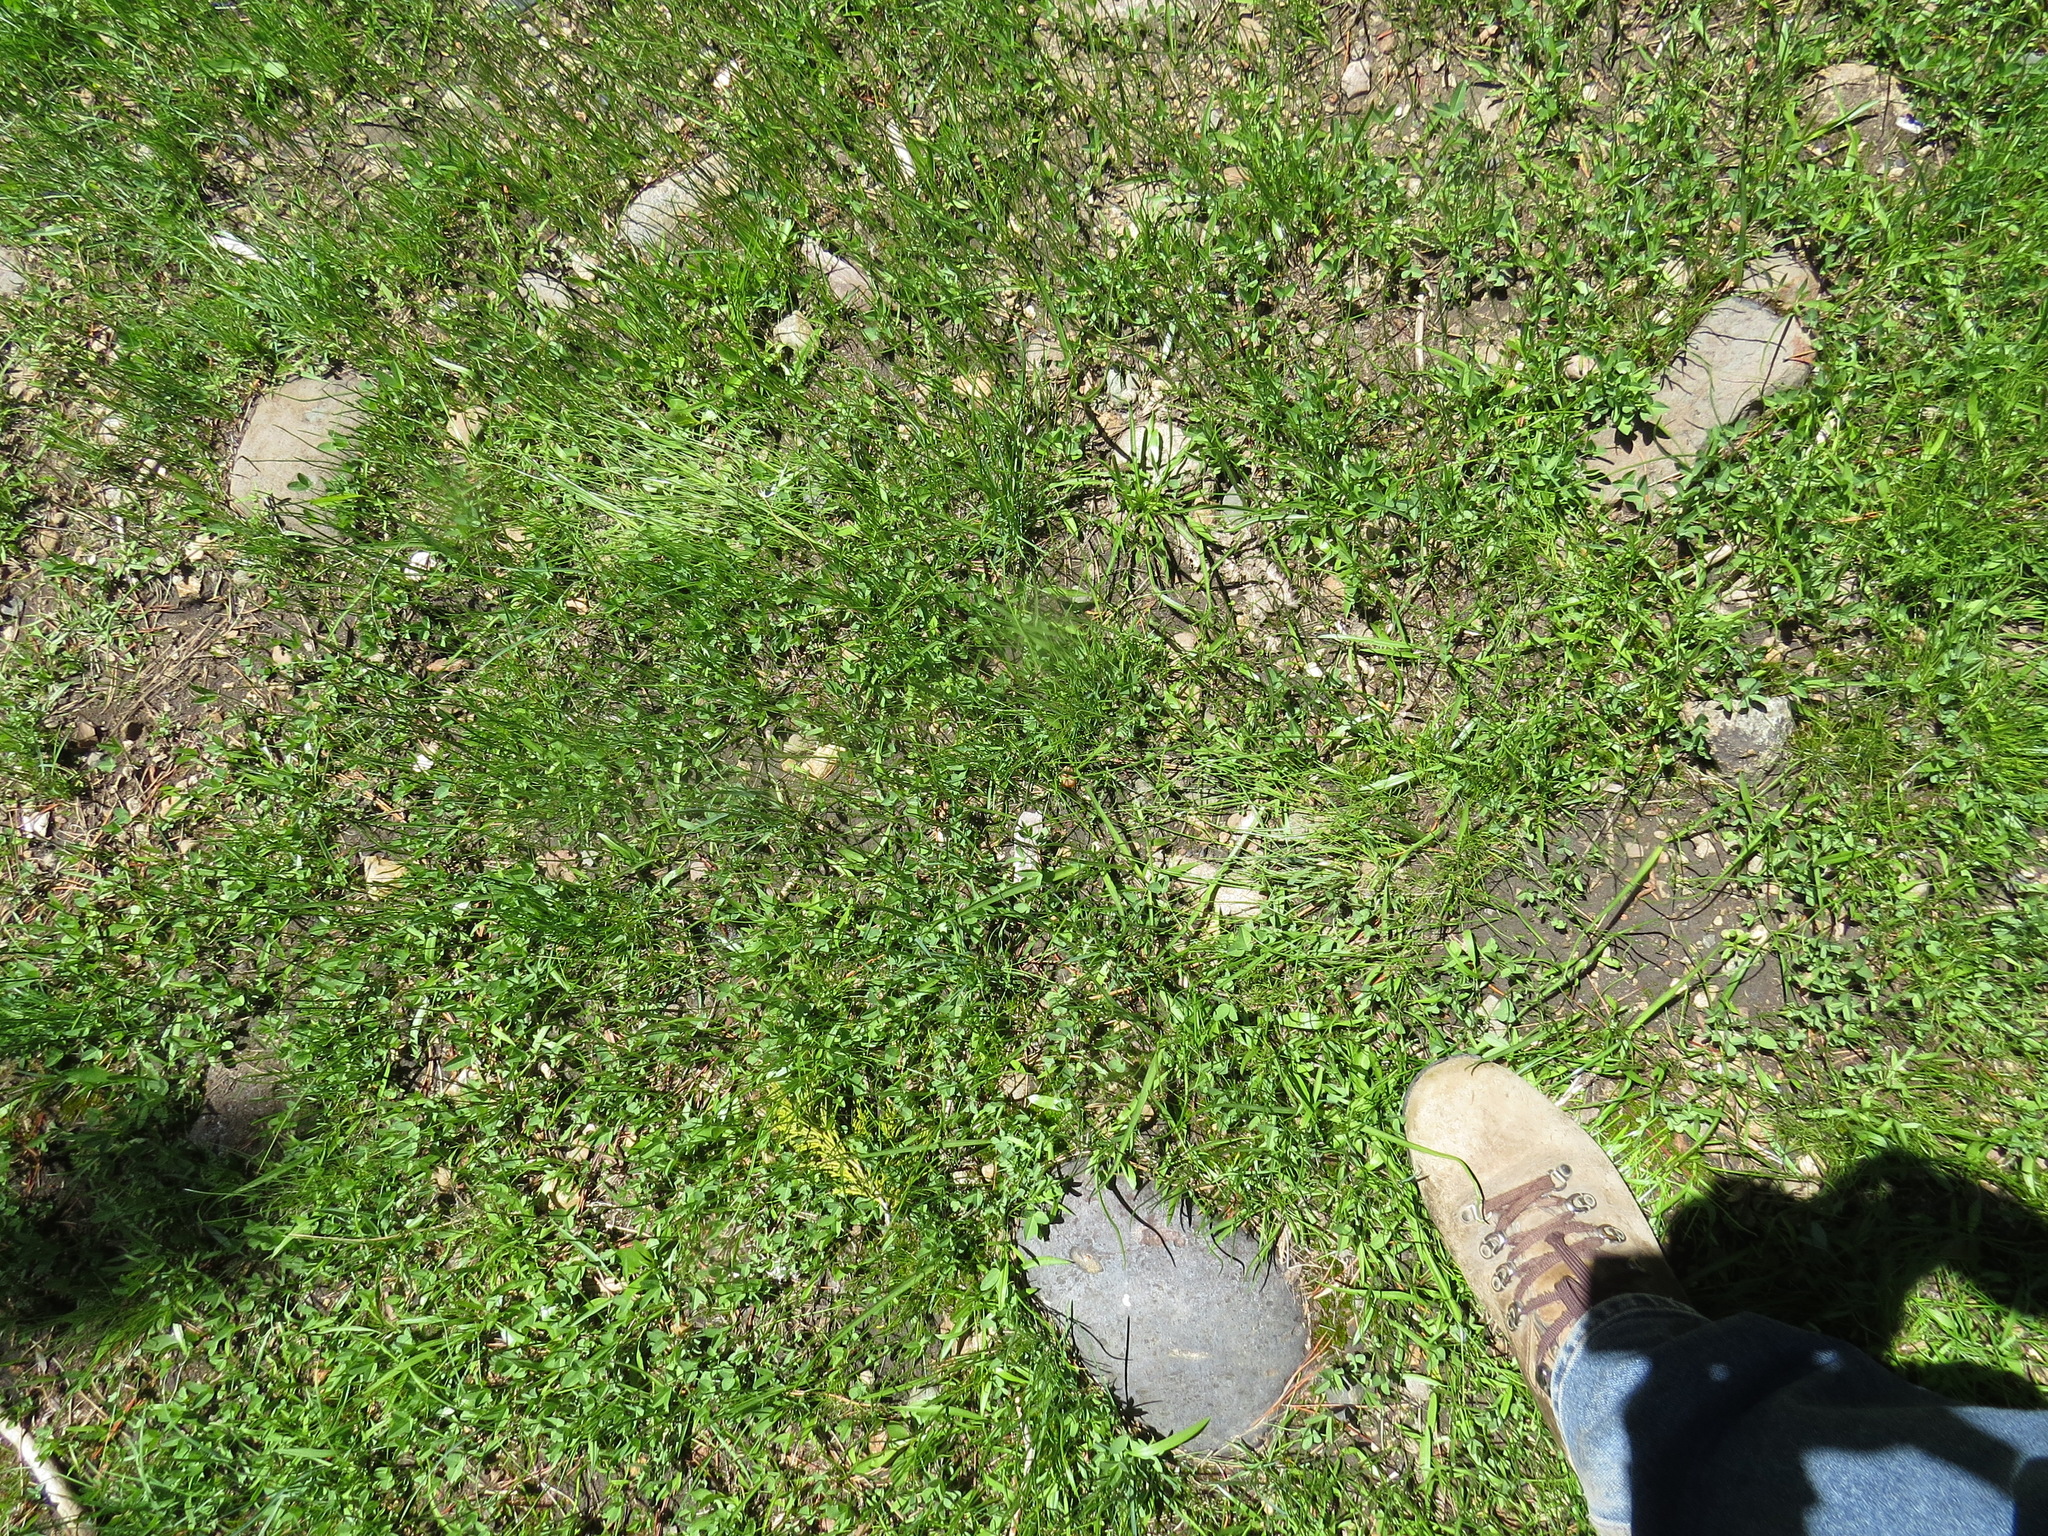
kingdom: Animalia
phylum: Chordata
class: Mammalia
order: Carnivora
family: Ursidae
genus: Ursus
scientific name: Ursus americanus
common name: American black bear
